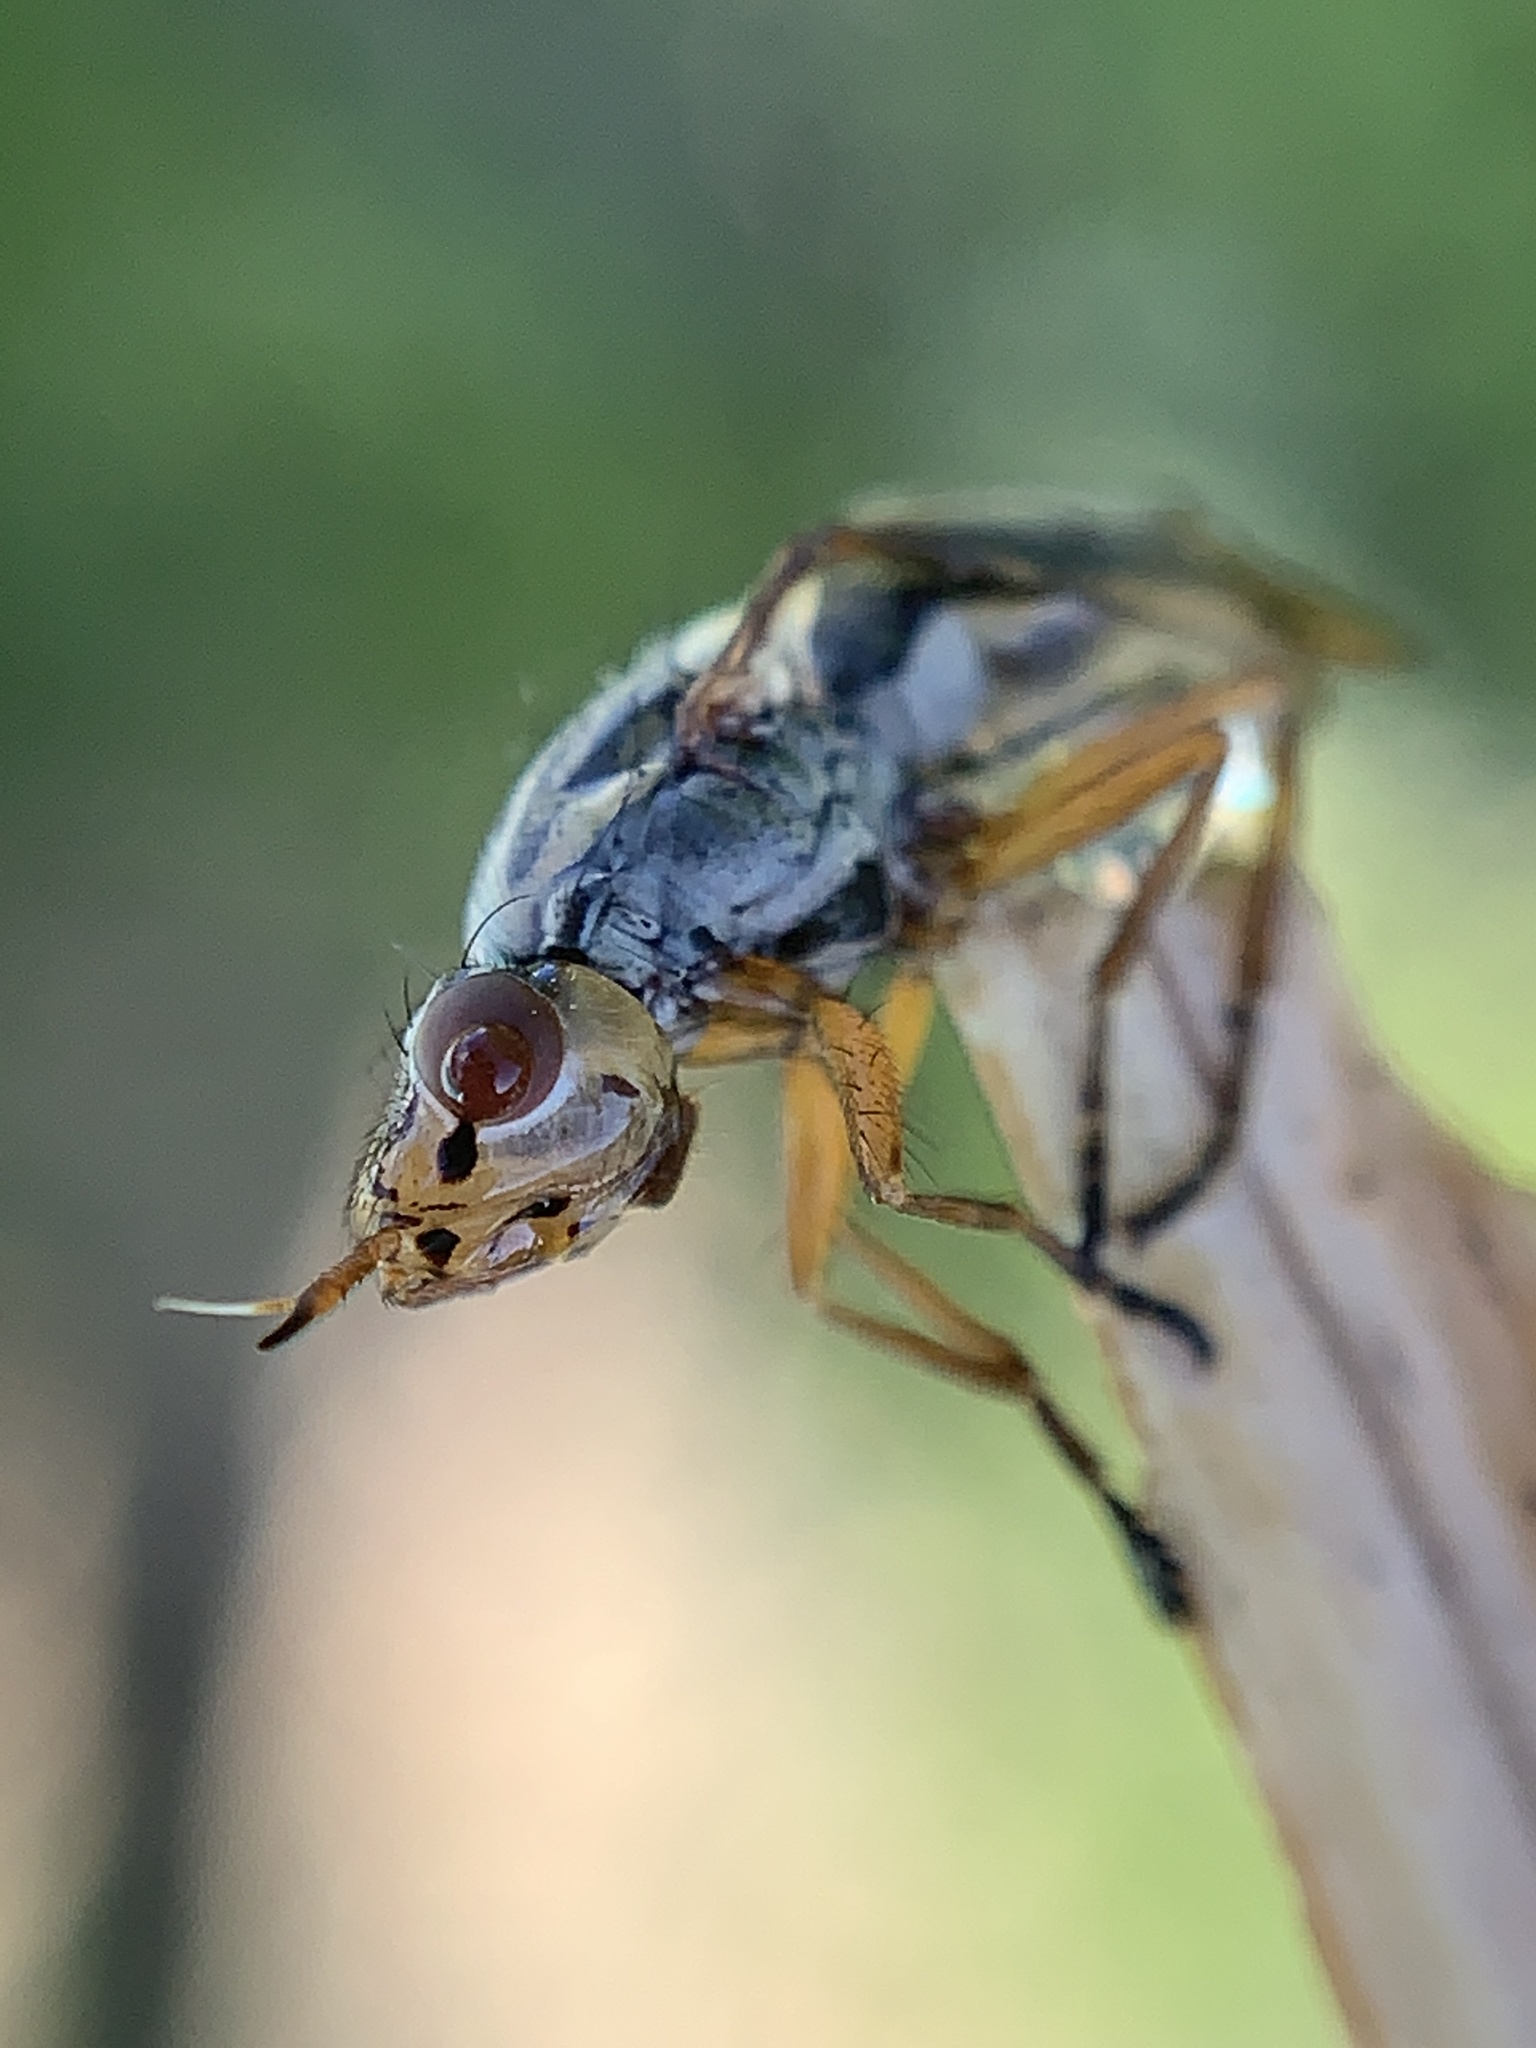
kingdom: Animalia
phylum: Arthropoda
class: Insecta
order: Diptera
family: Ulidiidae
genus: Dorycera
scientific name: Dorycera aquatica
